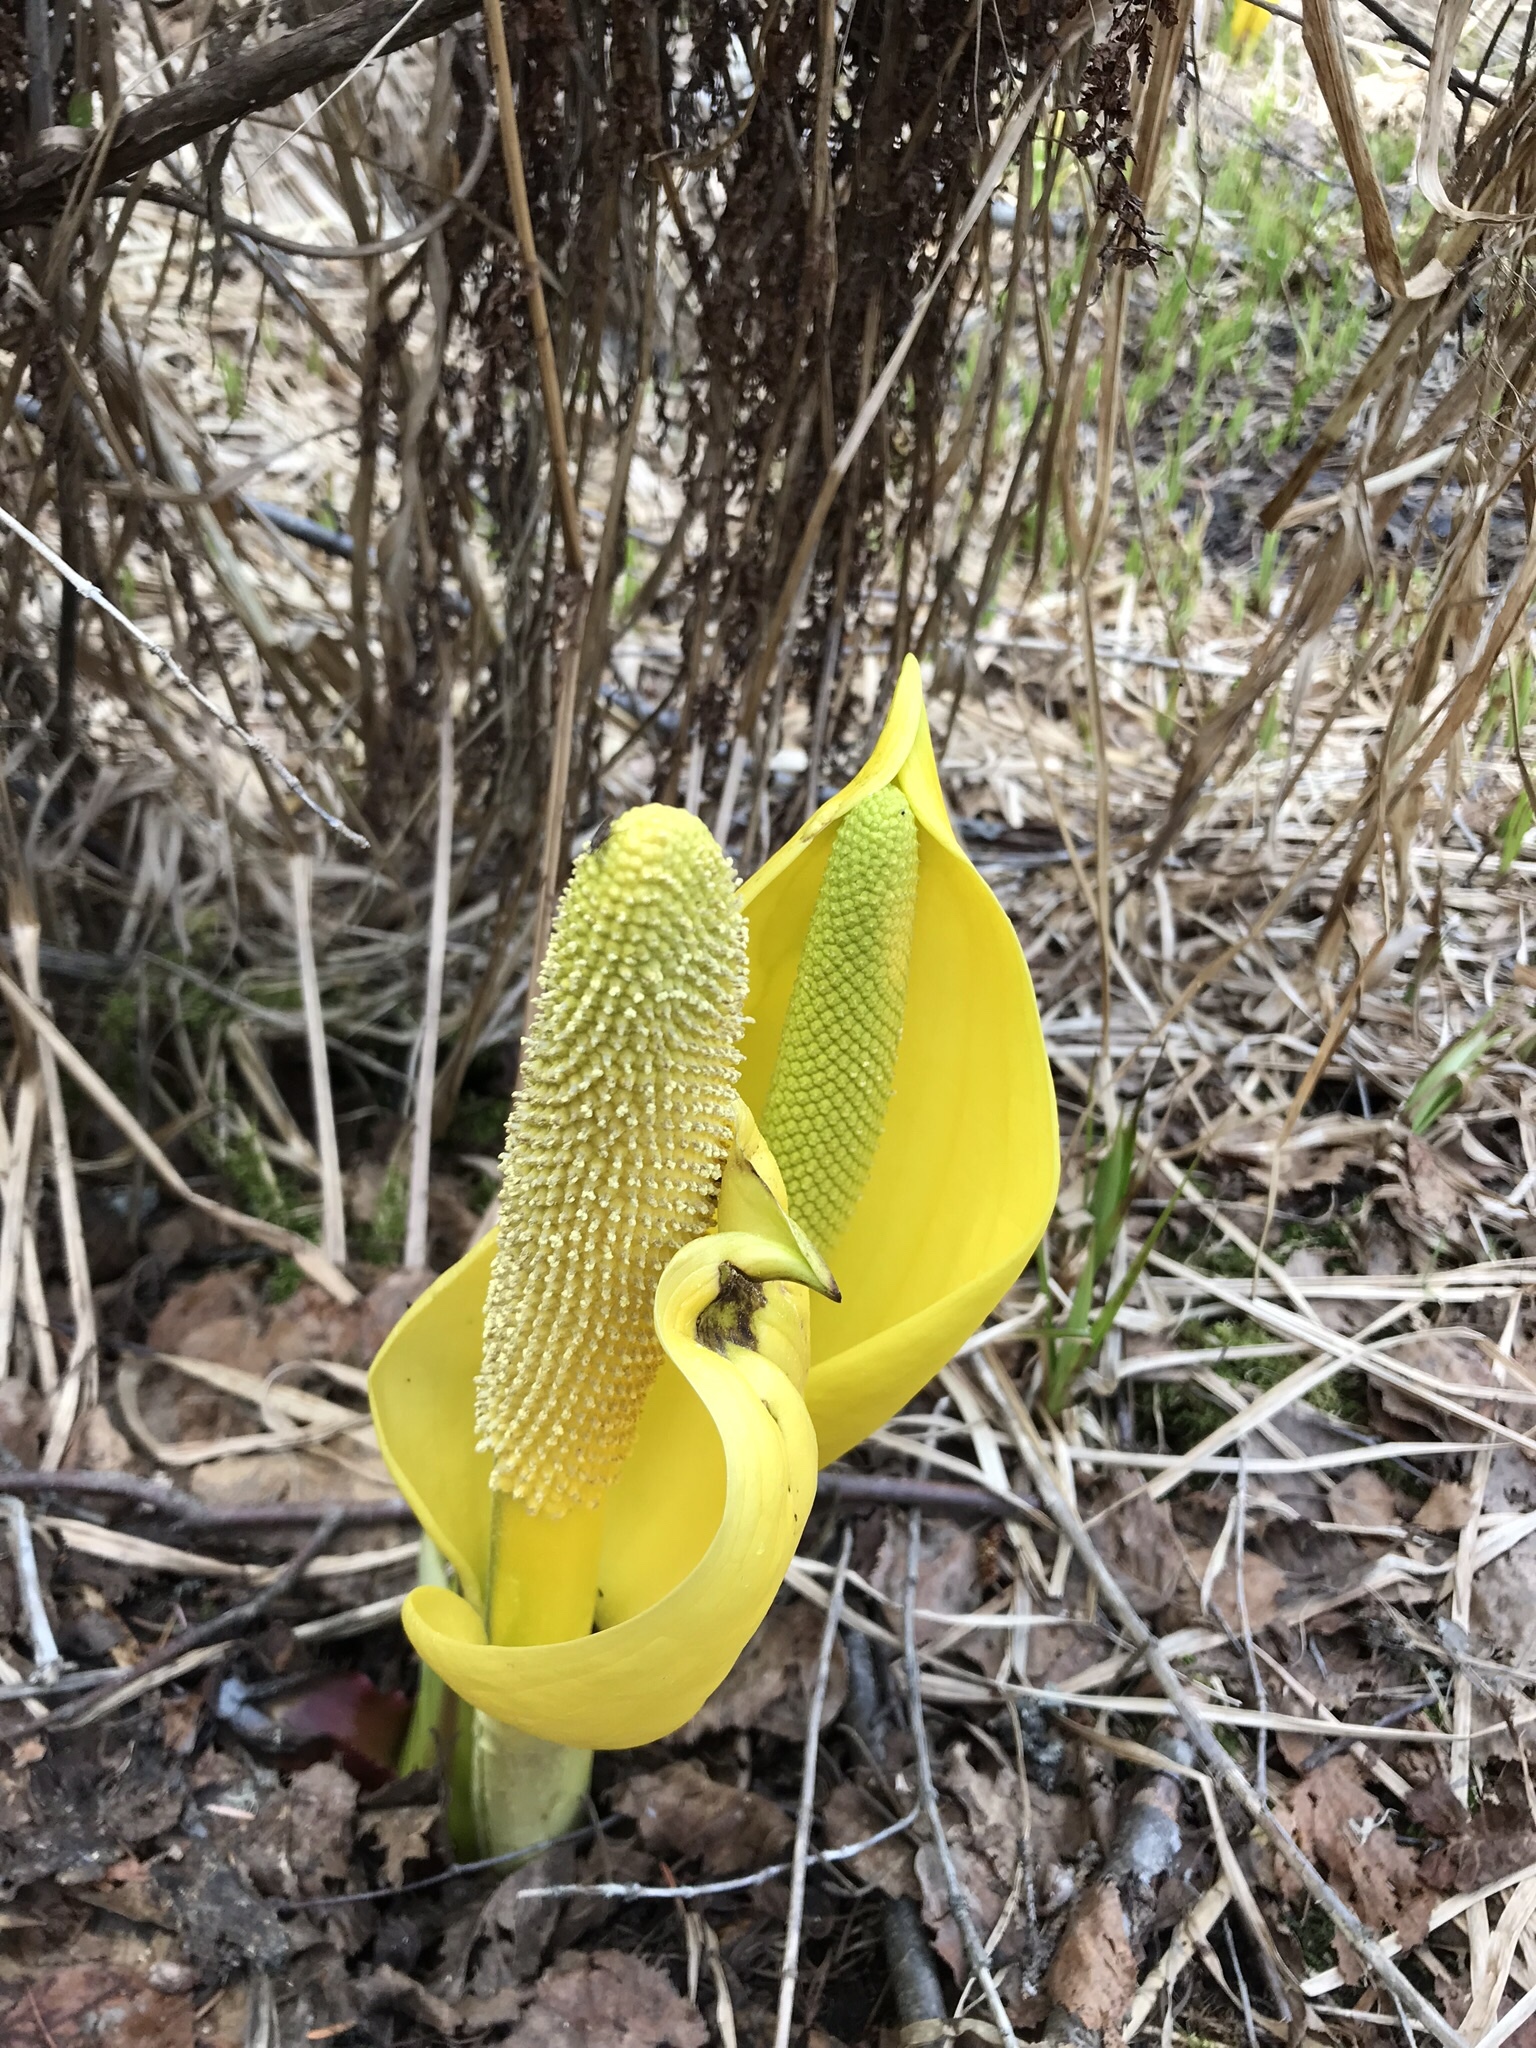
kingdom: Plantae
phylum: Tracheophyta
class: Liliopsida
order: Alismatales
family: Araceae
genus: Lysichiton
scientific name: Lysichiton americanus
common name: American skunk cabbage
